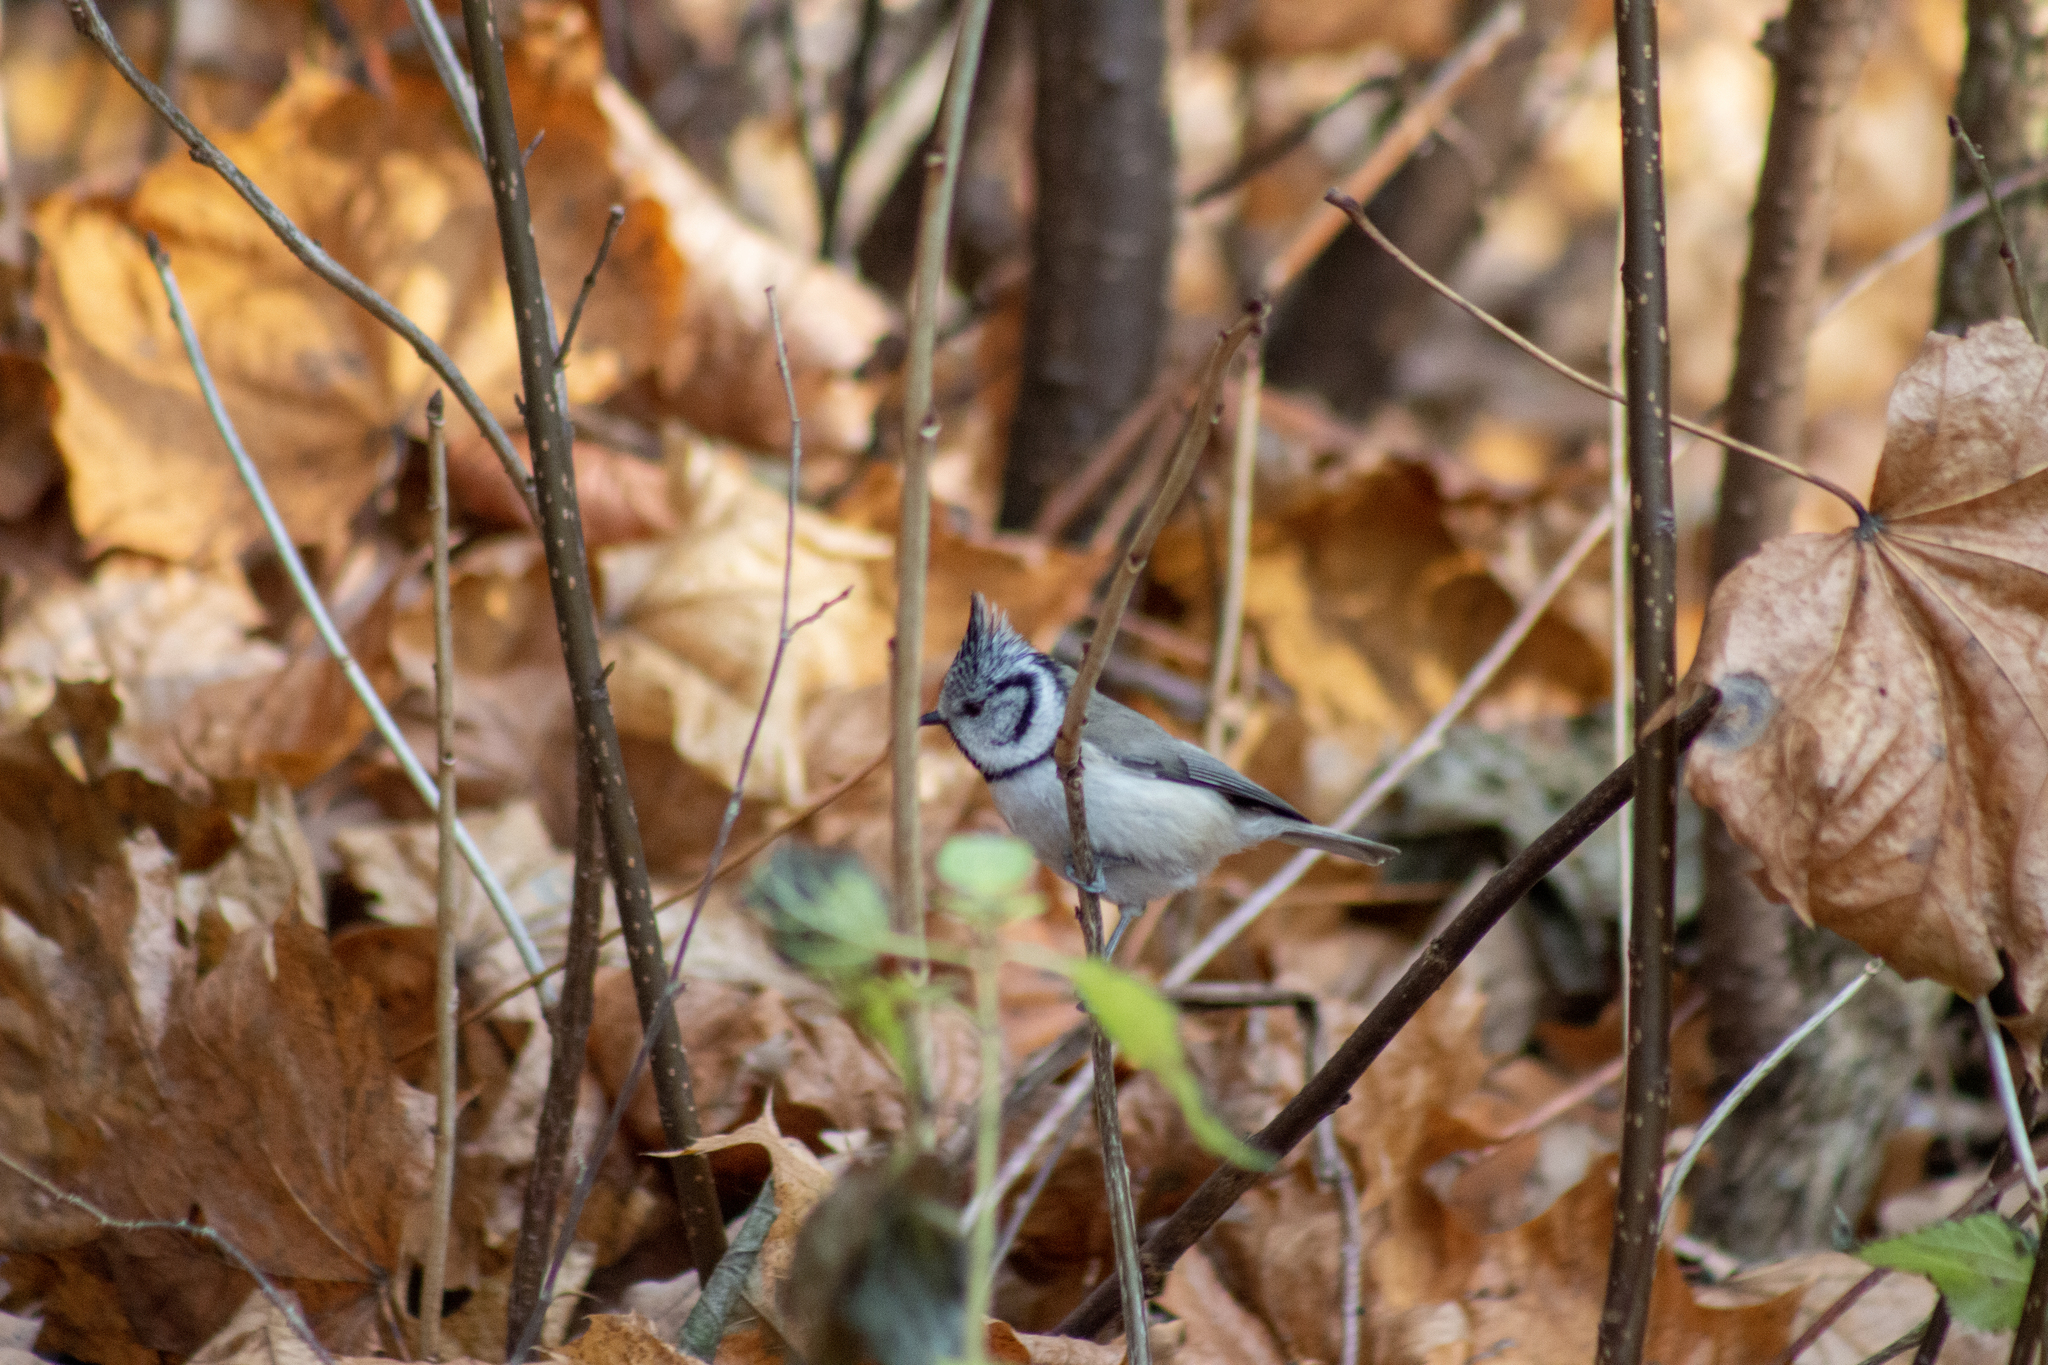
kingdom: Animalia
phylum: Chordata
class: Aves
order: Passeriformes
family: Paridae
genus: Lophophanes
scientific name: Lophophanes cristatus
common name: European crested tit
